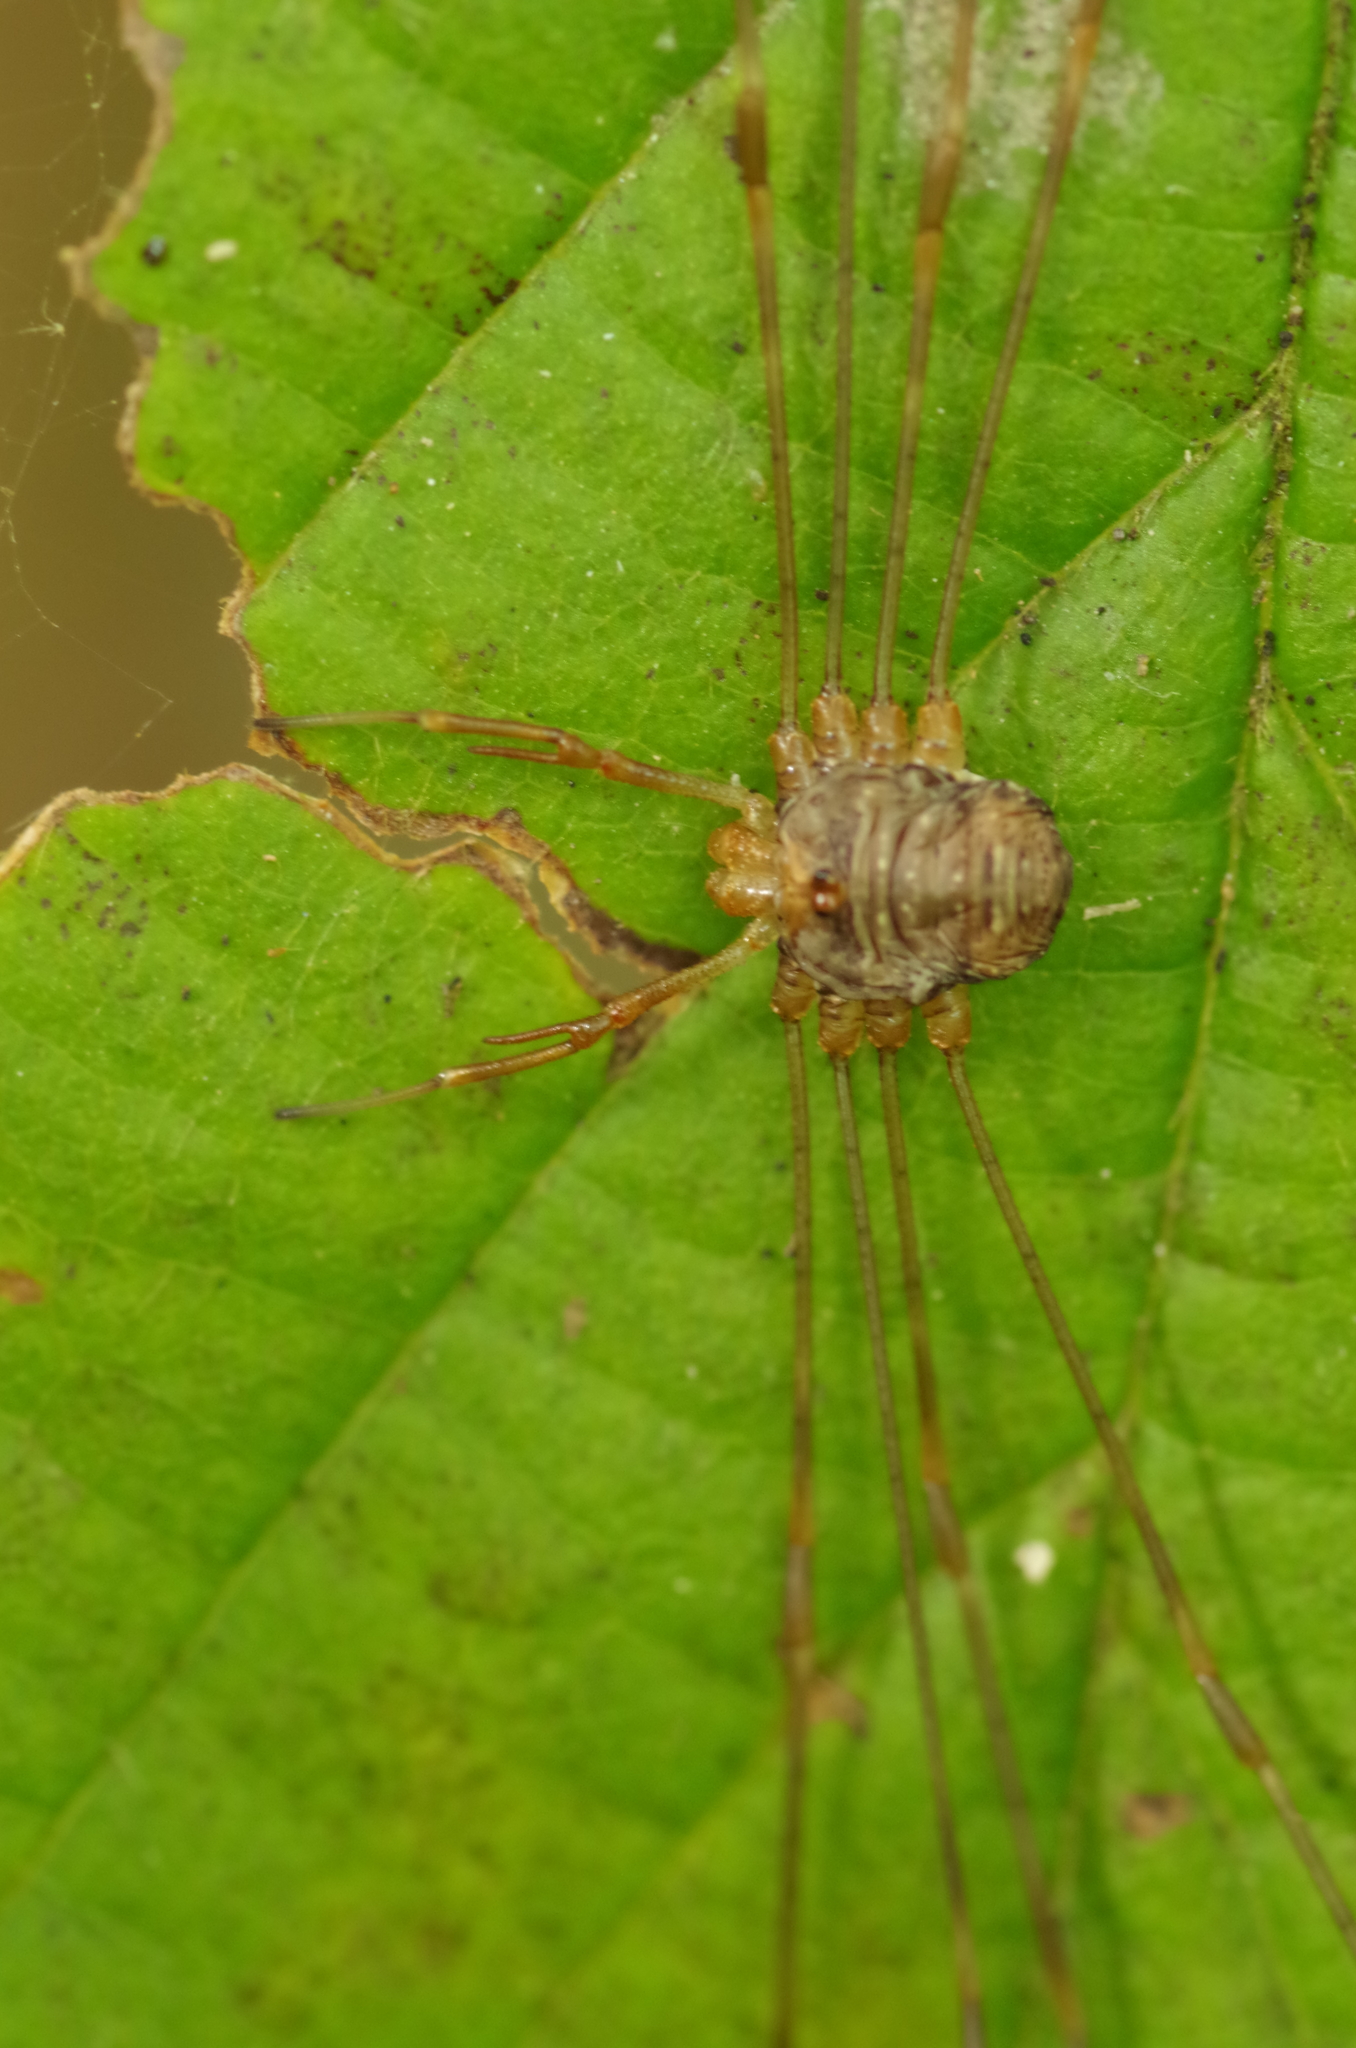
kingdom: Animalia
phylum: Arthropoda
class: Arachnida
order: Opiliones
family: Phalangiidae
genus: Dicranopalpus
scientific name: Dicranopalpus ramosus
